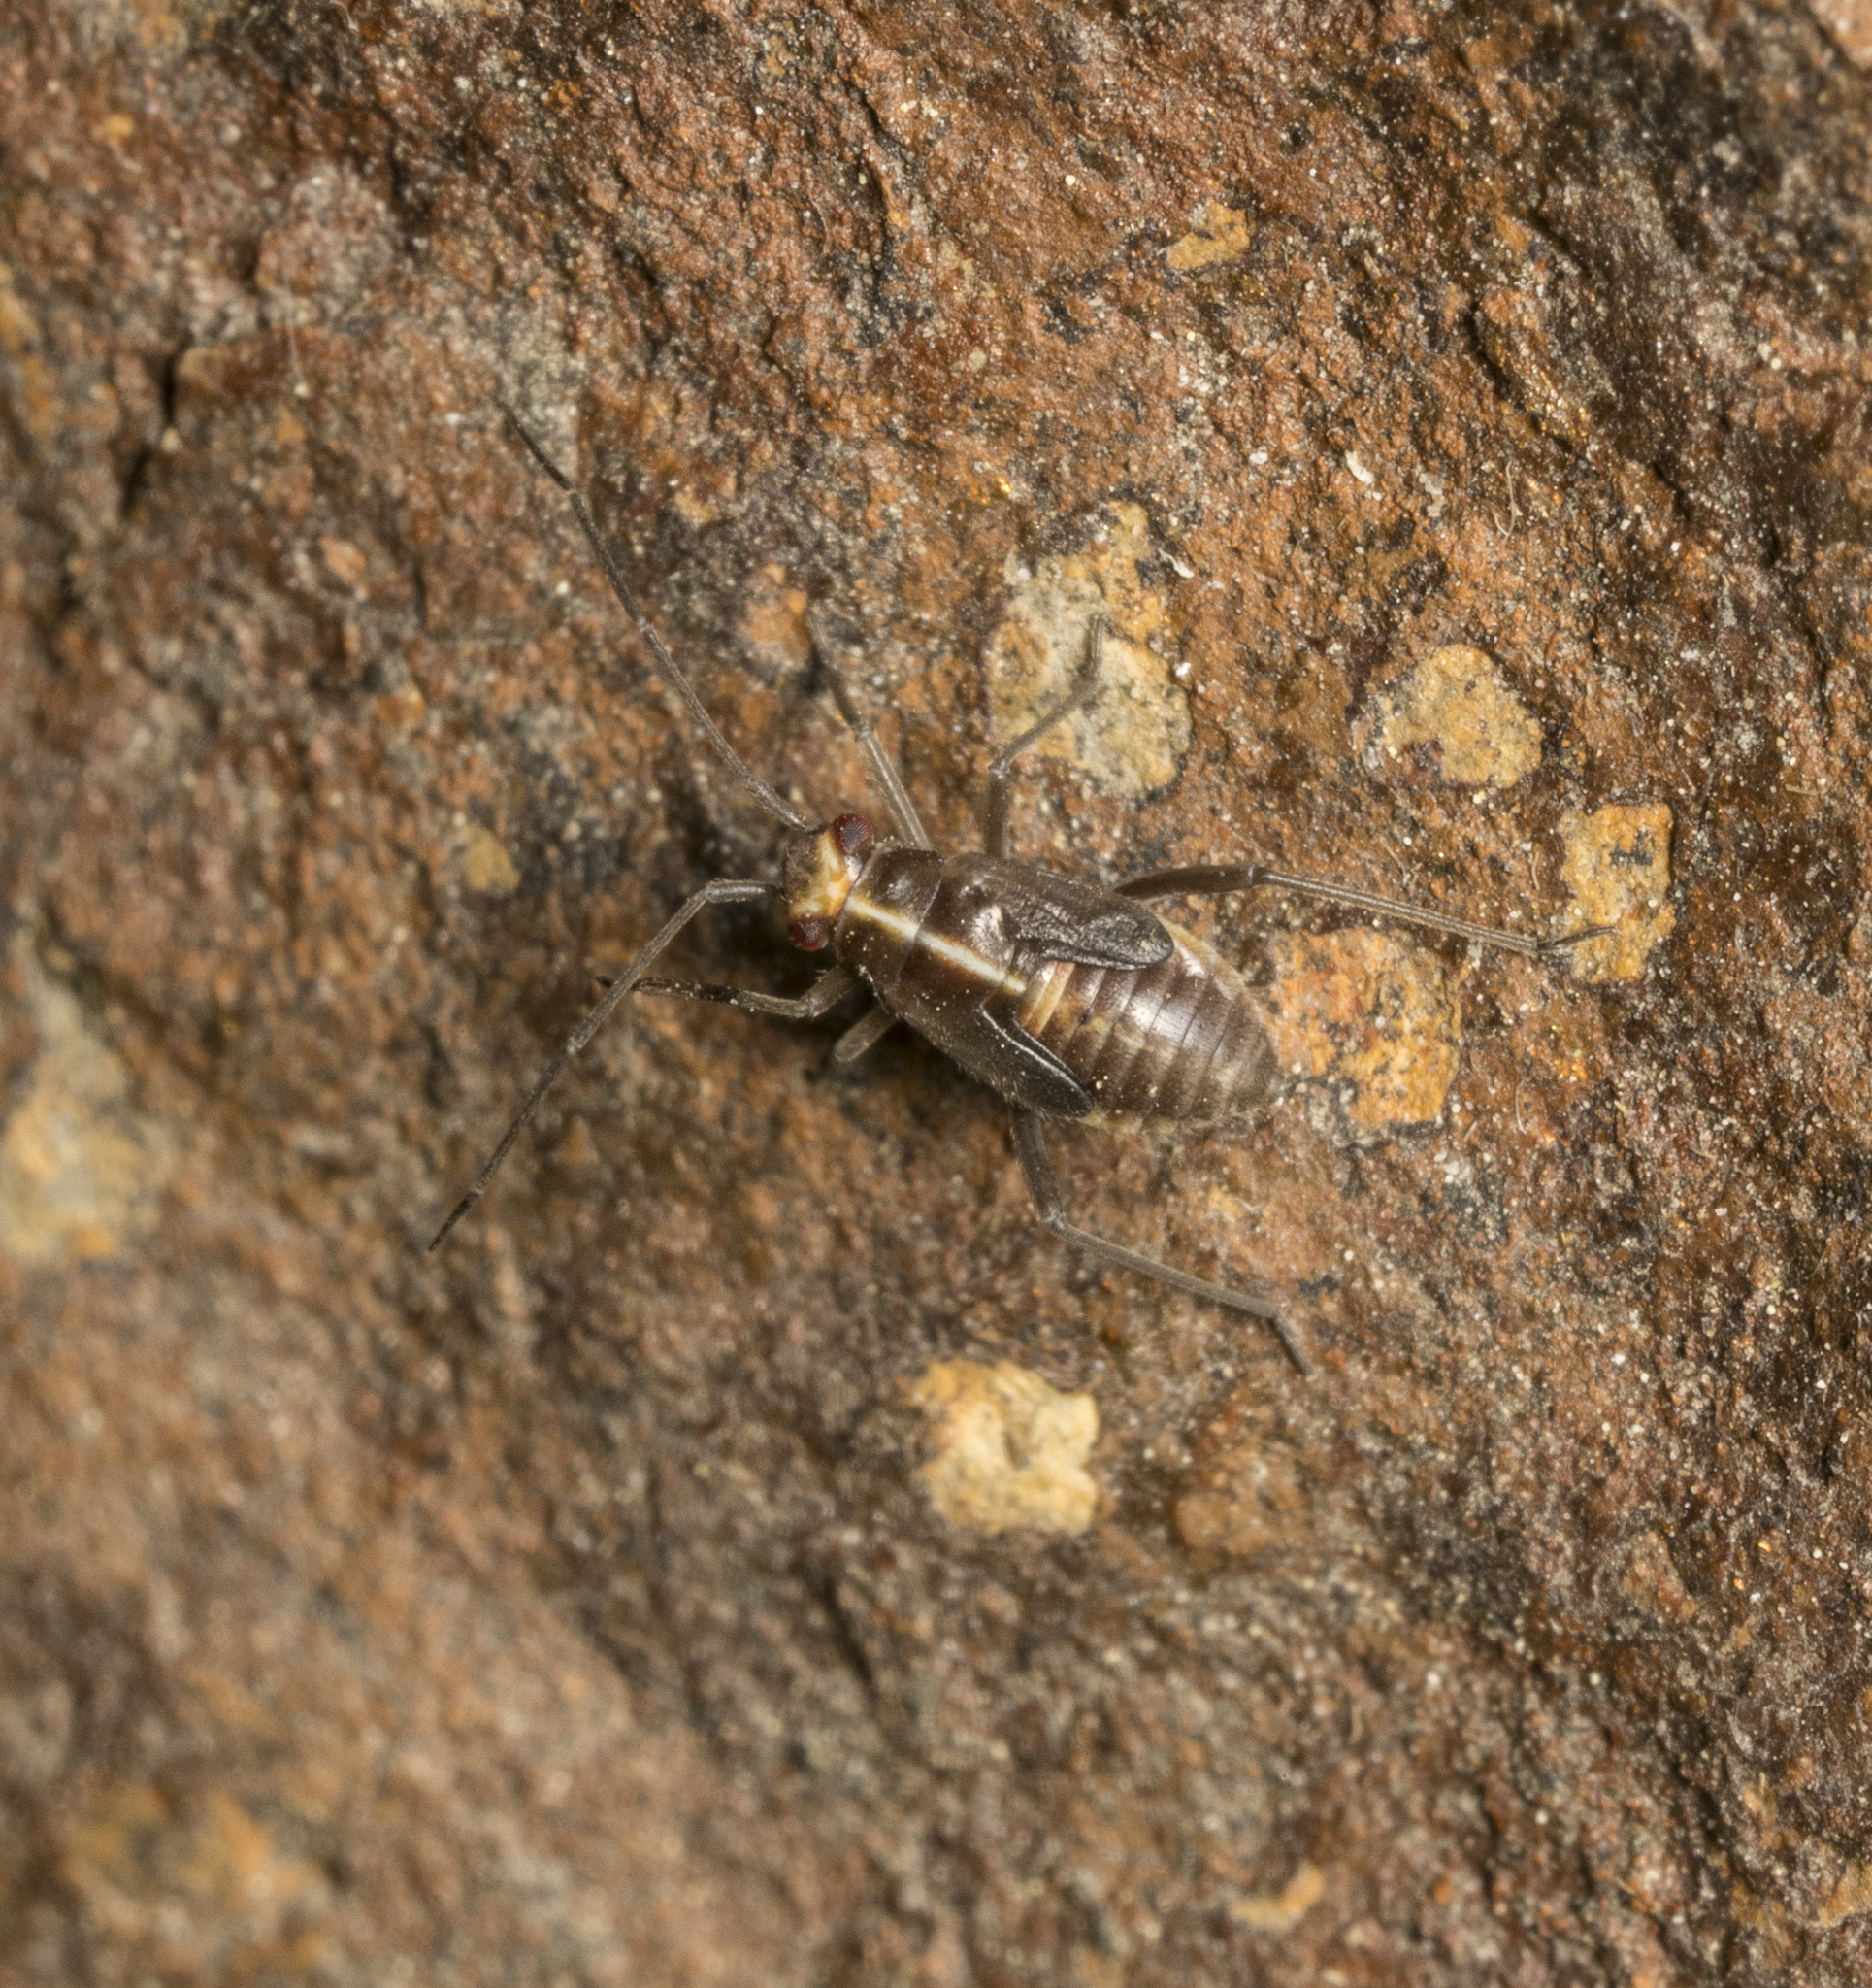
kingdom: Animalia
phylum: Arthropoda
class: Insecta
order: Hemiptera
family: Miridae
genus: Stenoparedra
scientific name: Stenoparedra
